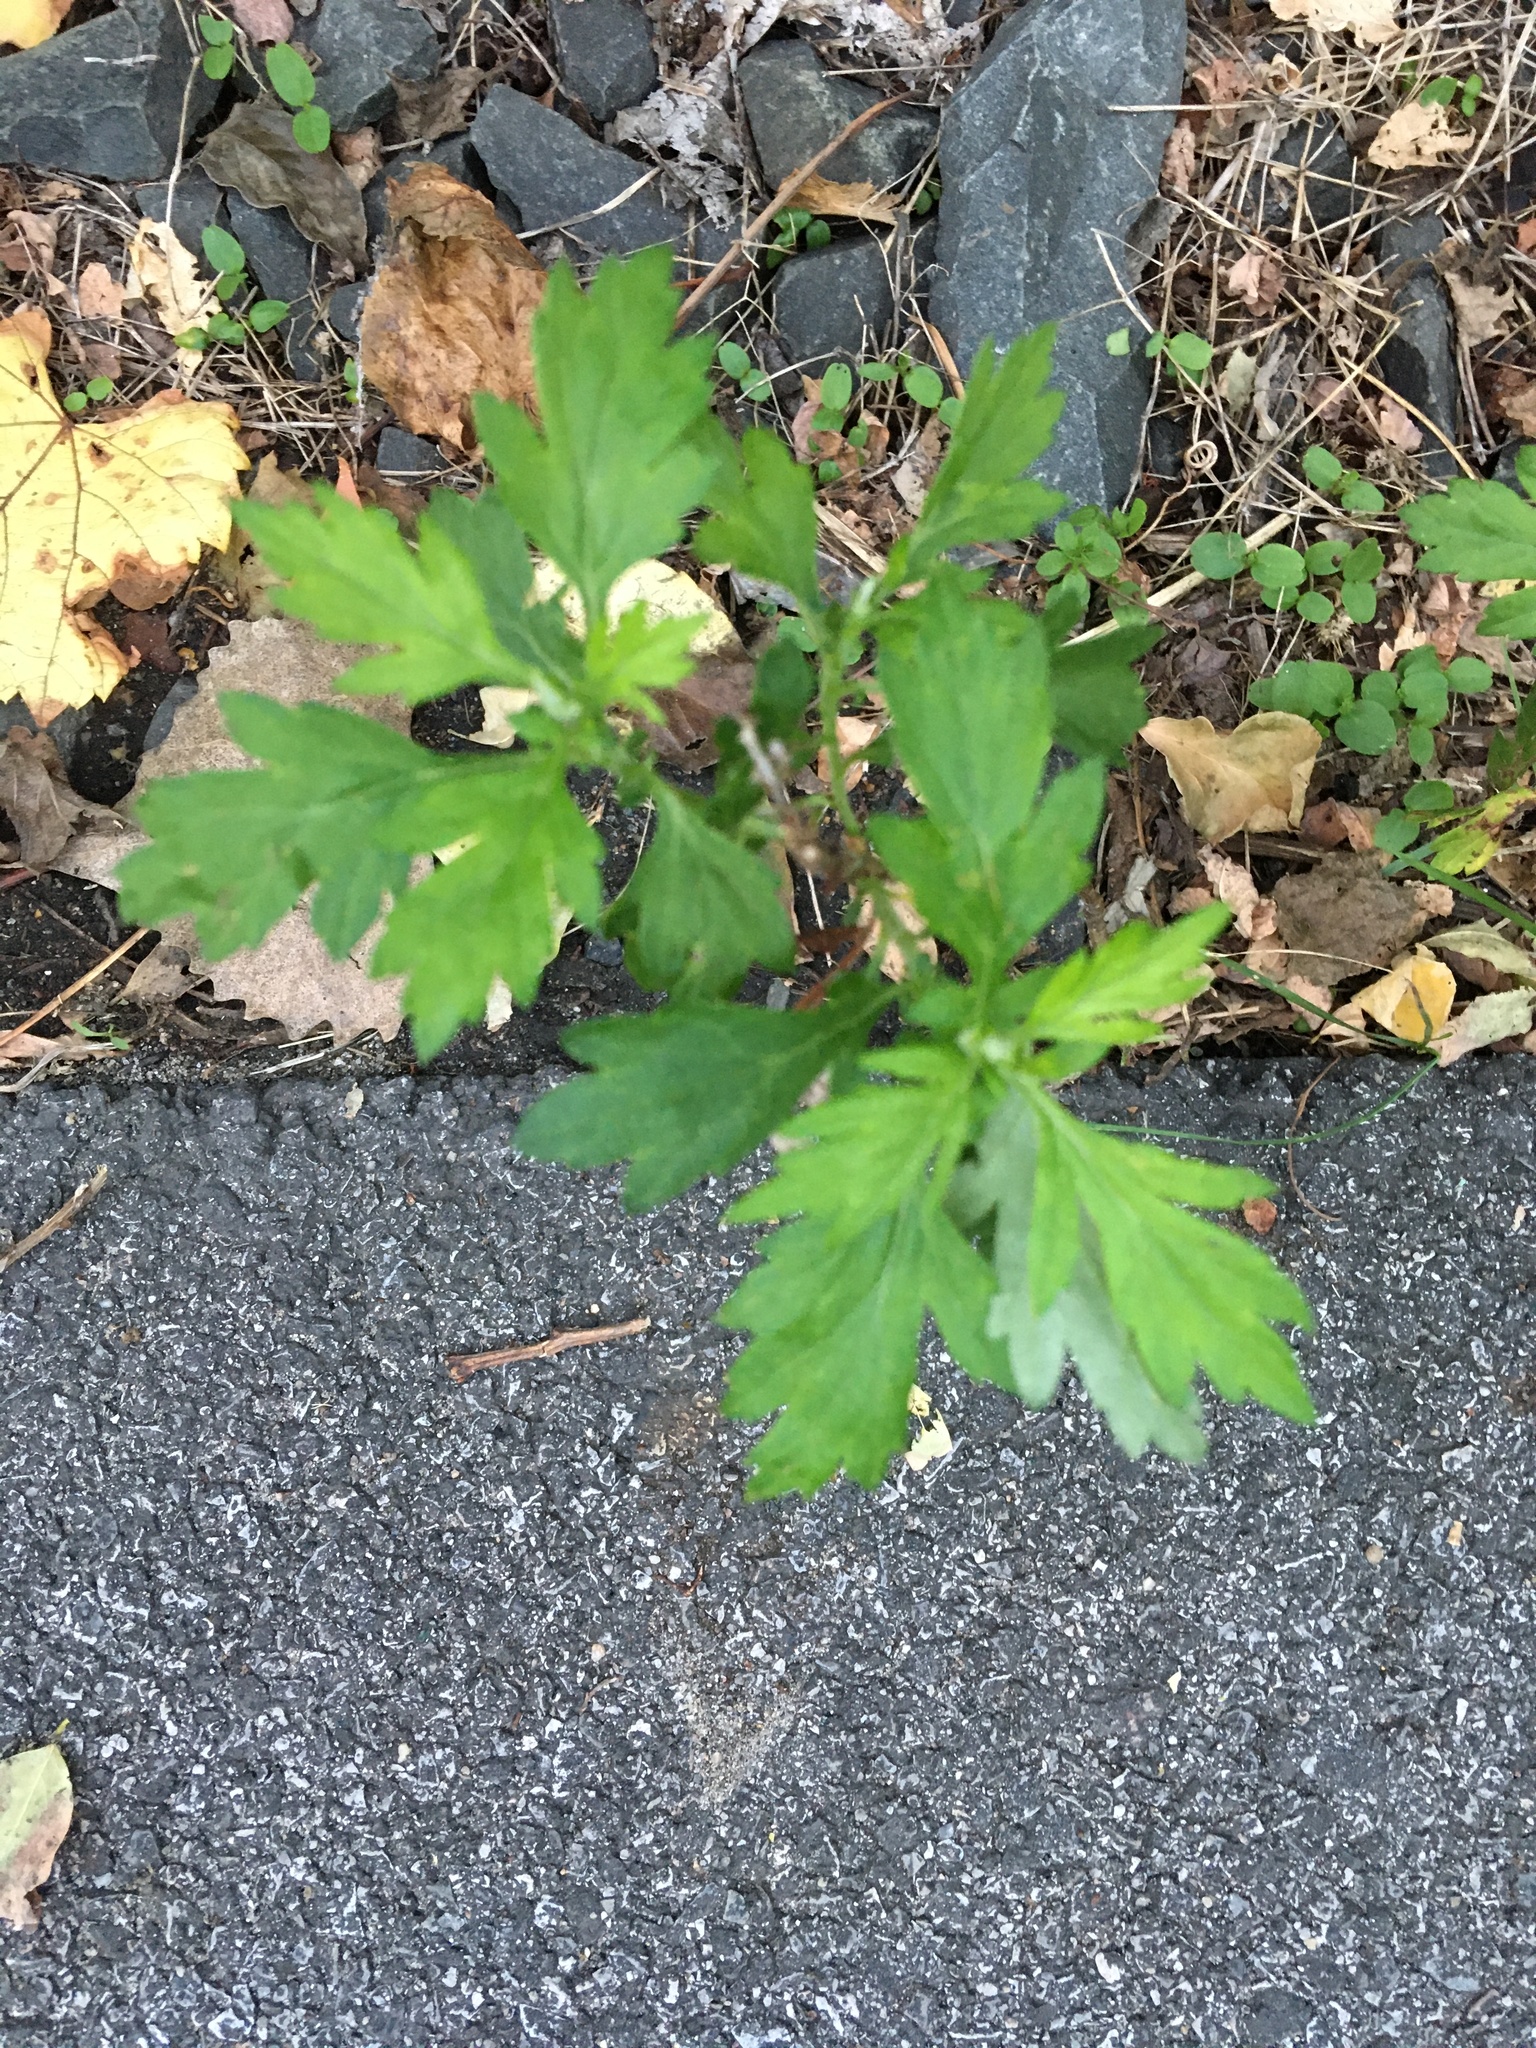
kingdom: Plantae
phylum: Tracheophyta
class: Magnoliopsida
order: Asterales
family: Asteraceae
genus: Artemisia
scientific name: Artemisia vulgaris
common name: Mugwort
